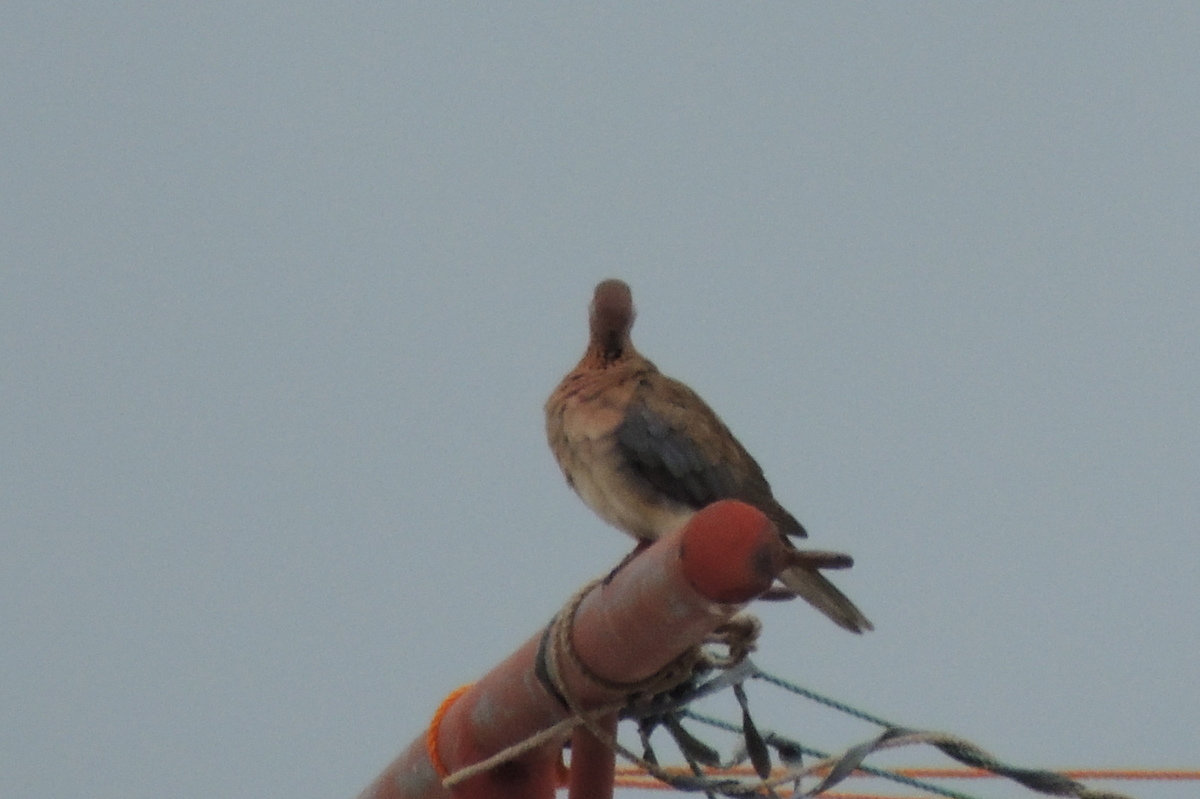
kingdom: Animalia
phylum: Chordata
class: Aves
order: Columbiformes
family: Columbidae
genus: Spilopelia
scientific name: Spilopelia senegalensis
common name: Laughing dove
